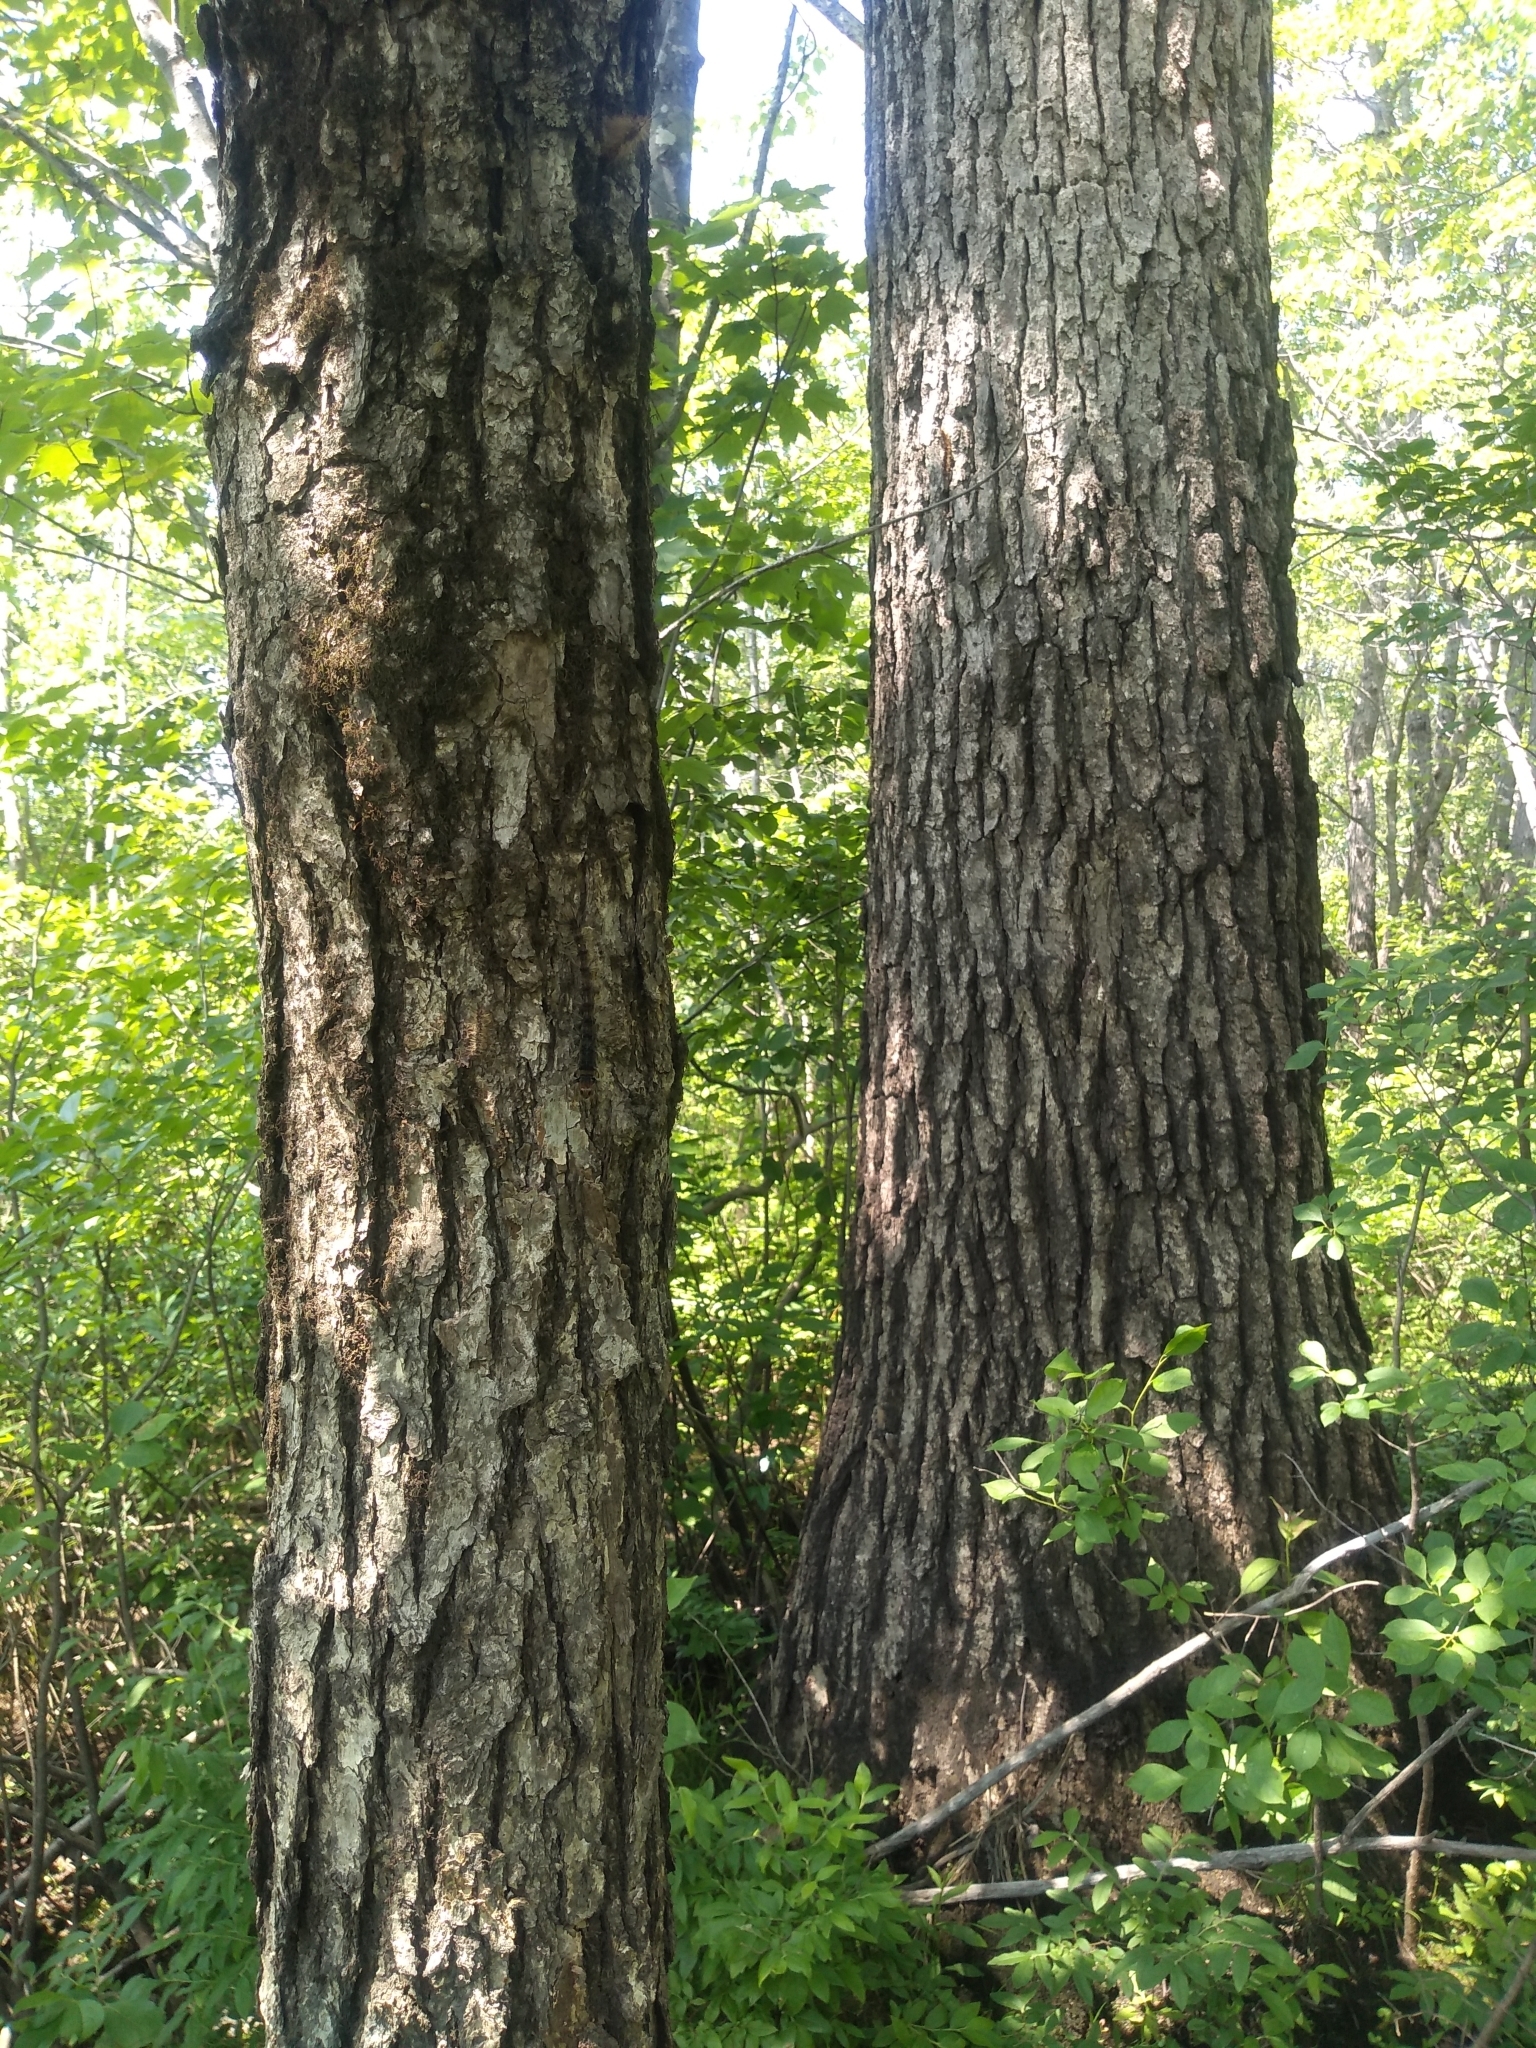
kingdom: Plantae
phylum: Tracheophyta
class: Magnoliopsida
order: Fagales
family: Fagaceae
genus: Quercus
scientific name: Quercus macrocarpa
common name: Bur oak
